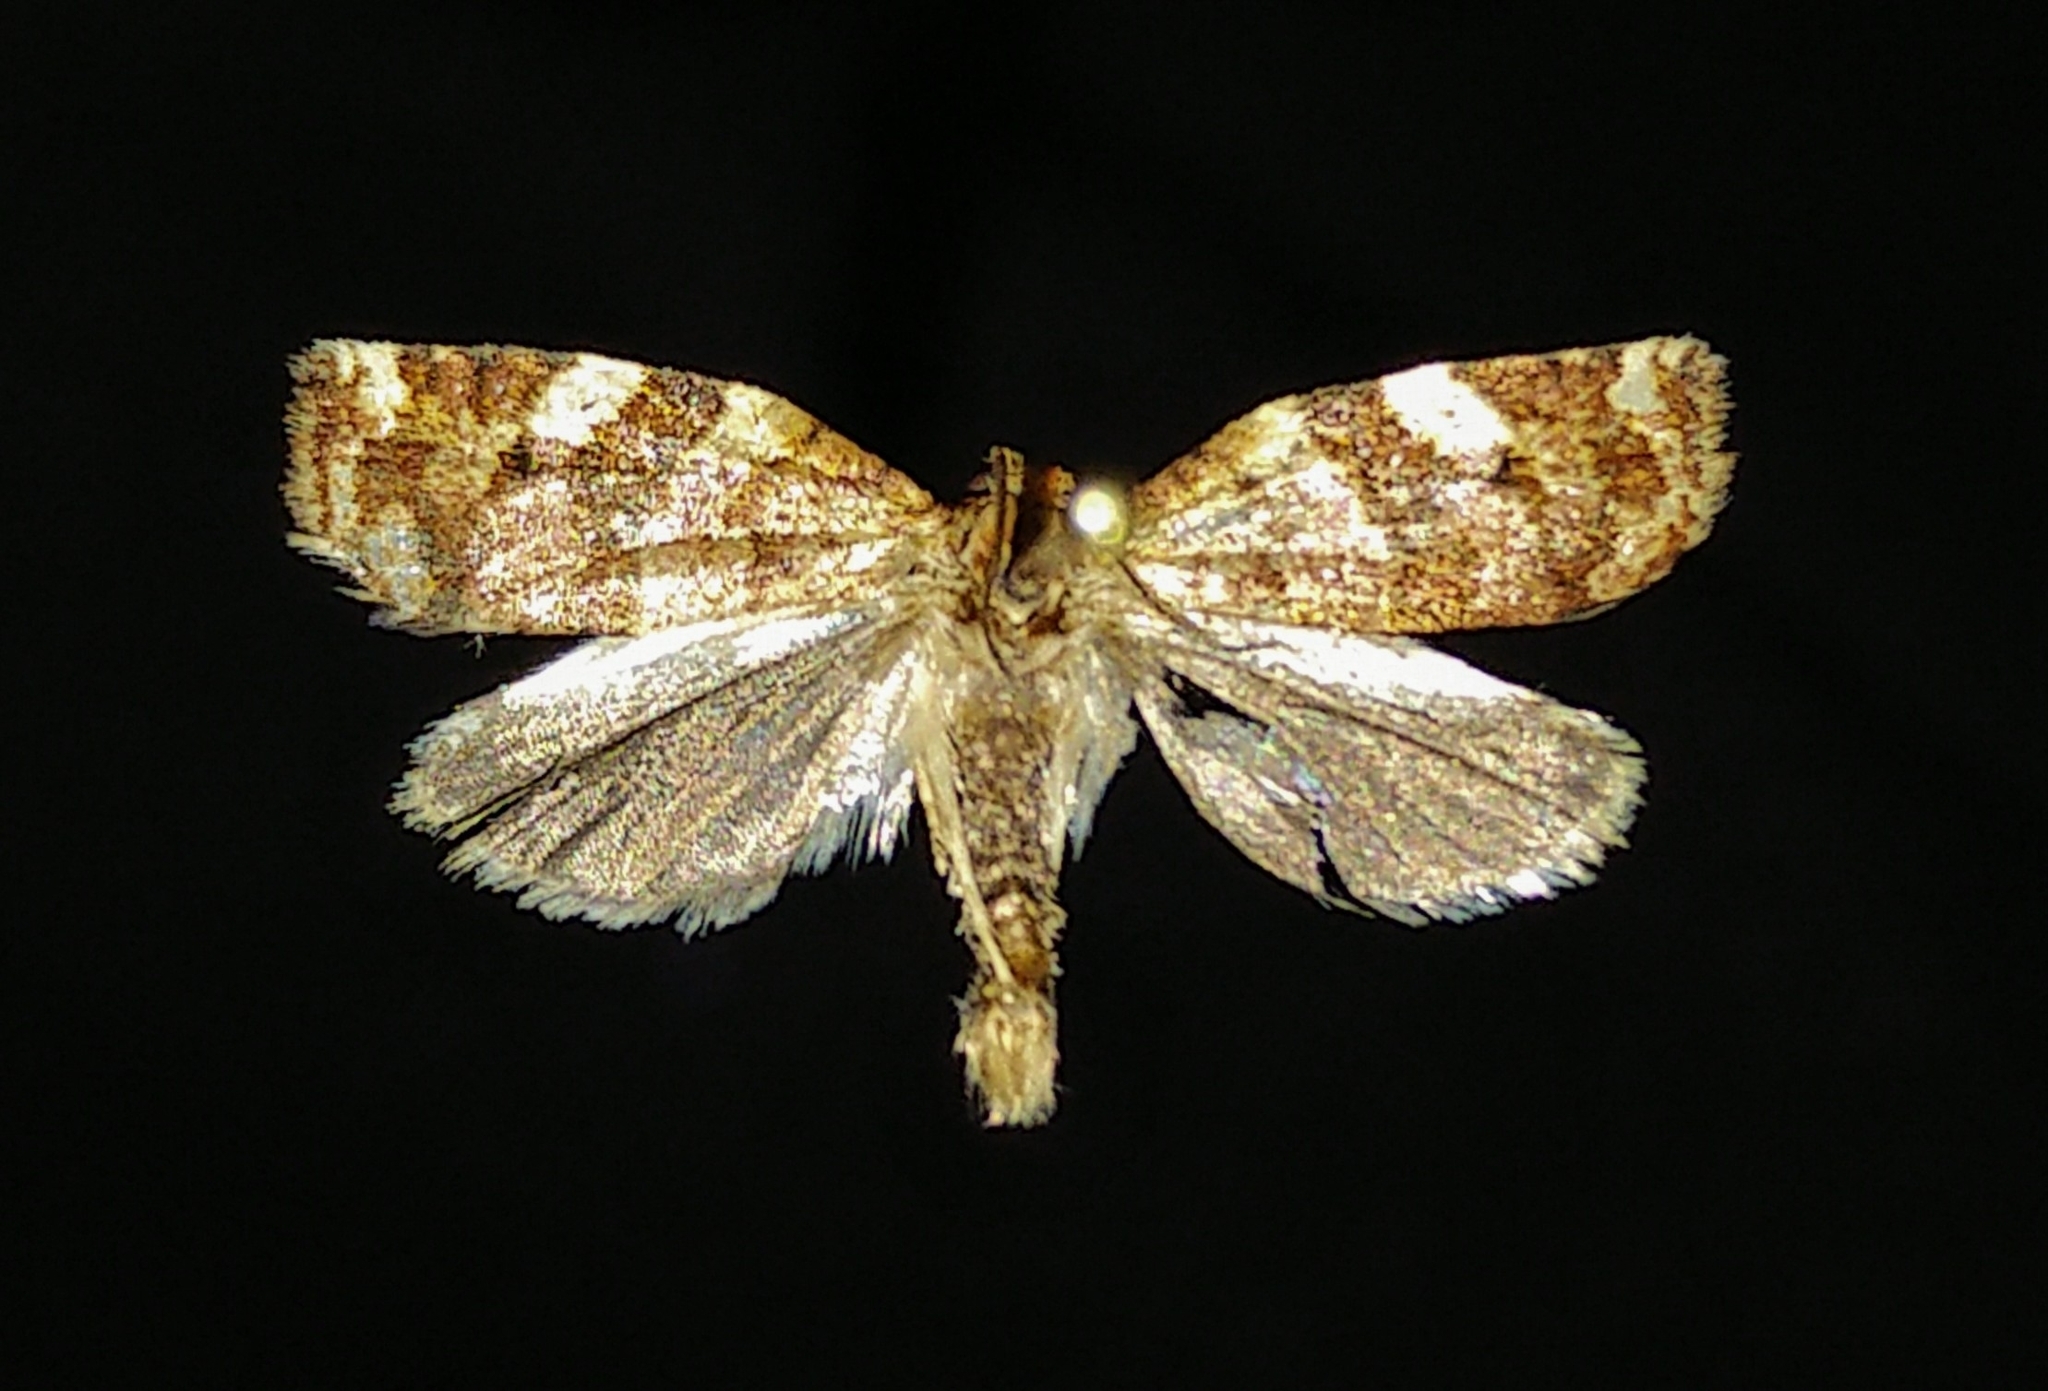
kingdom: Animalia
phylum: Arthropoda
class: Insecta
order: Lepidoptera
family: Tortricidae
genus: Archips
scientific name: Archips argyrospila
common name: Fruit-tree leafroller moth
